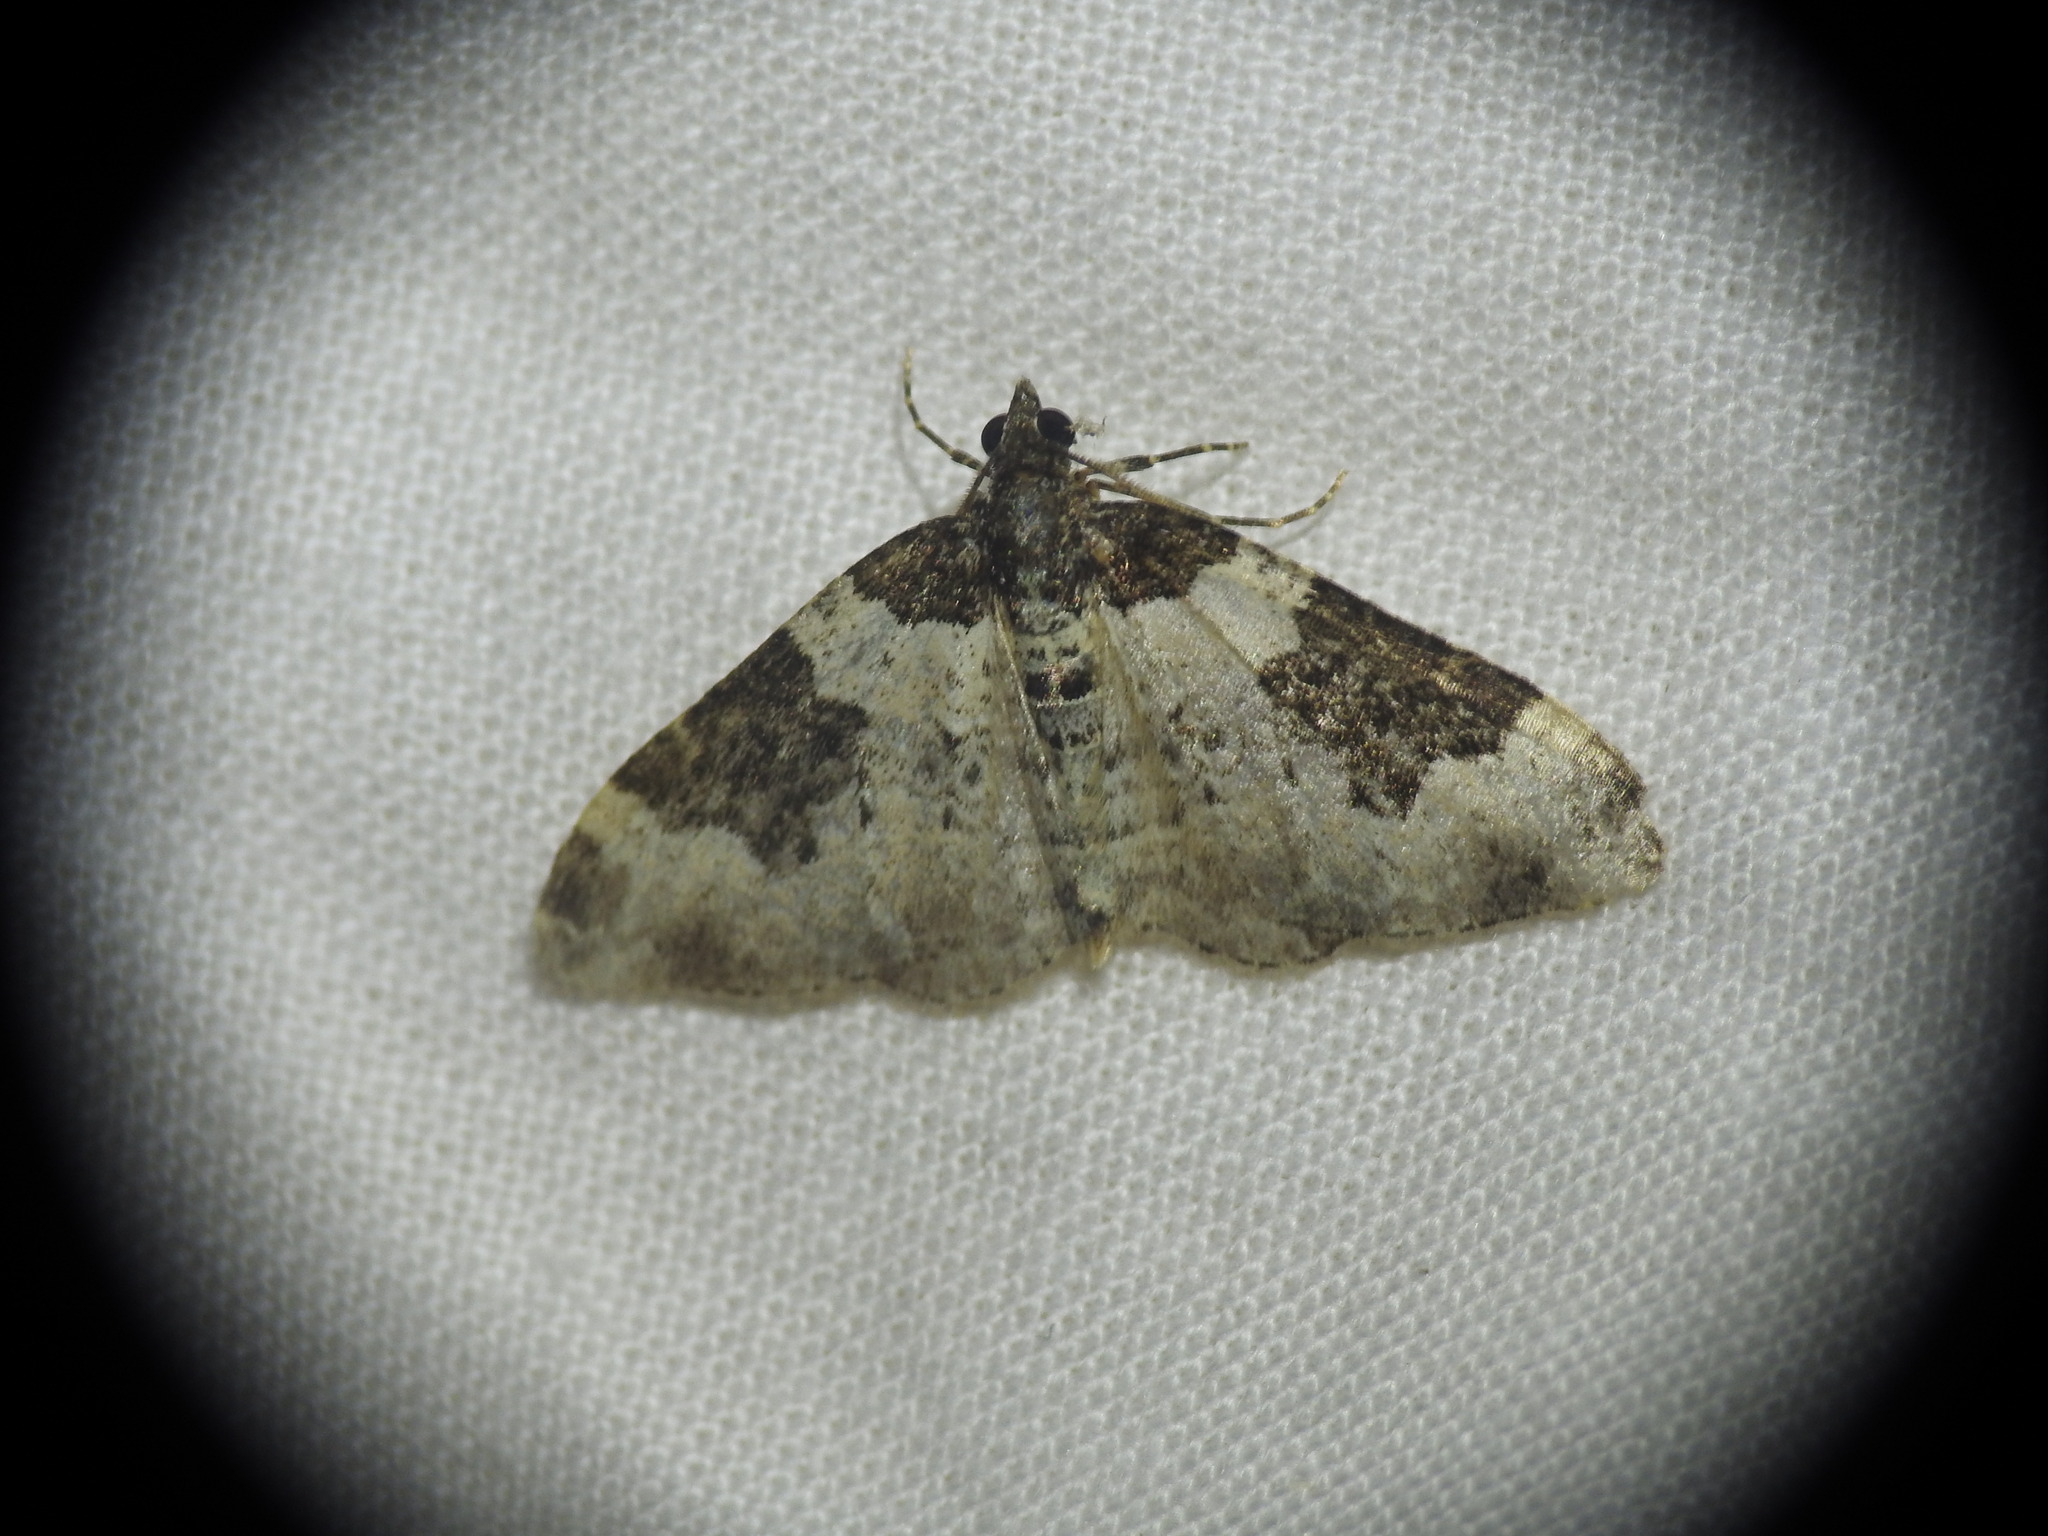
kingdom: Animalia
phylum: Arthropoda
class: Insecta
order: Lepidoptera
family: Geometridae
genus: Xanthorhoe
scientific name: Xanthorhoe fluctuata
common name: Garden carpet
